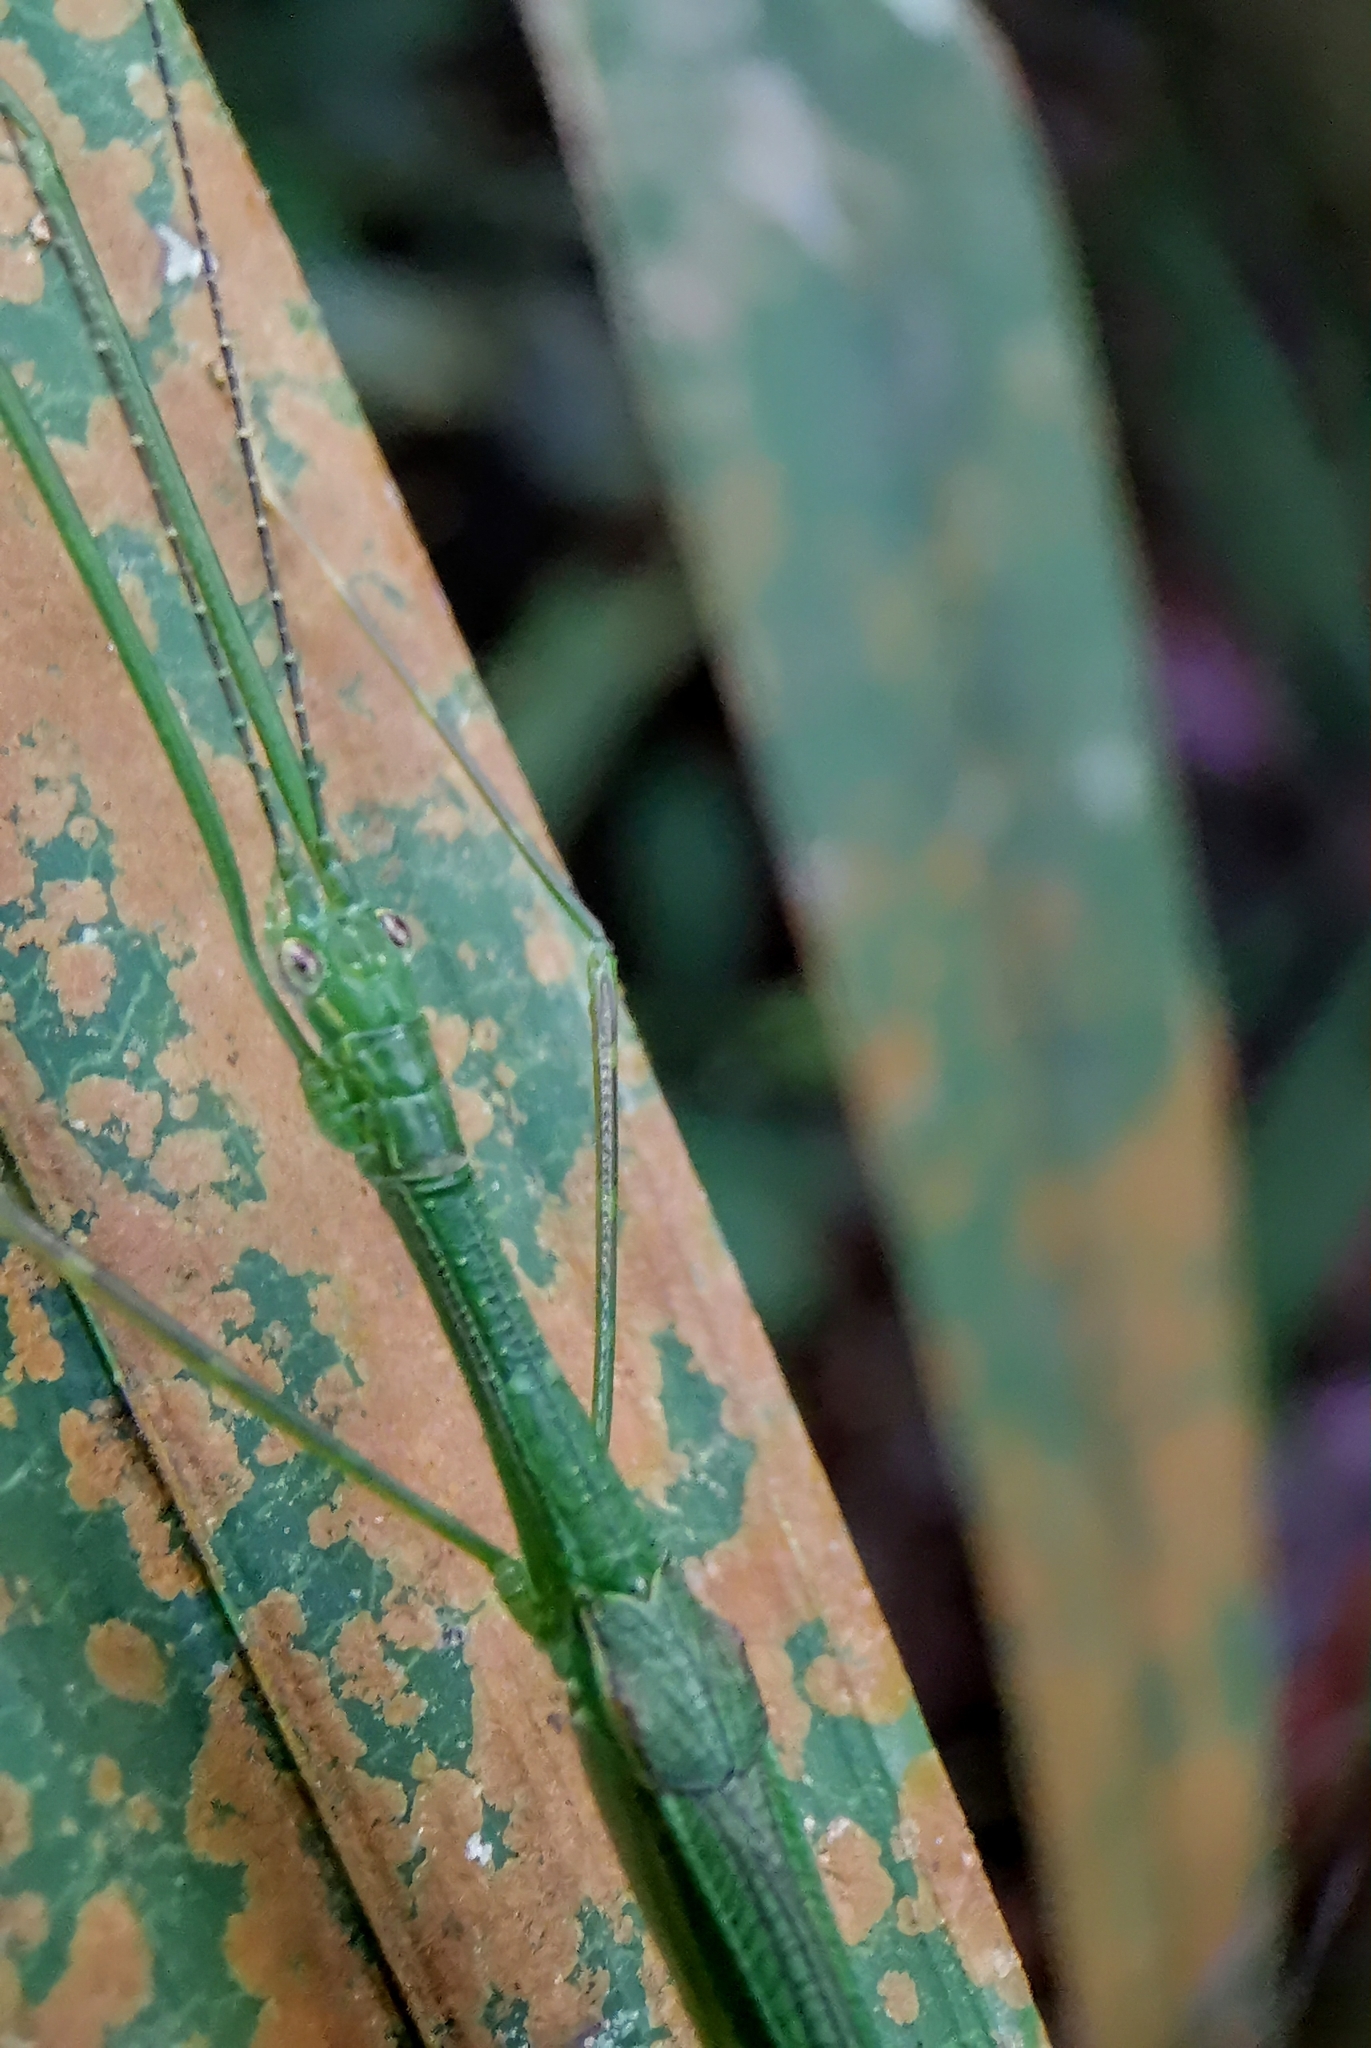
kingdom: Animalia
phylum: Arthropoda
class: Insecta
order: Phasmida
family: Lonchodidae
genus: Necroscia
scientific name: Necroscia ingenua
